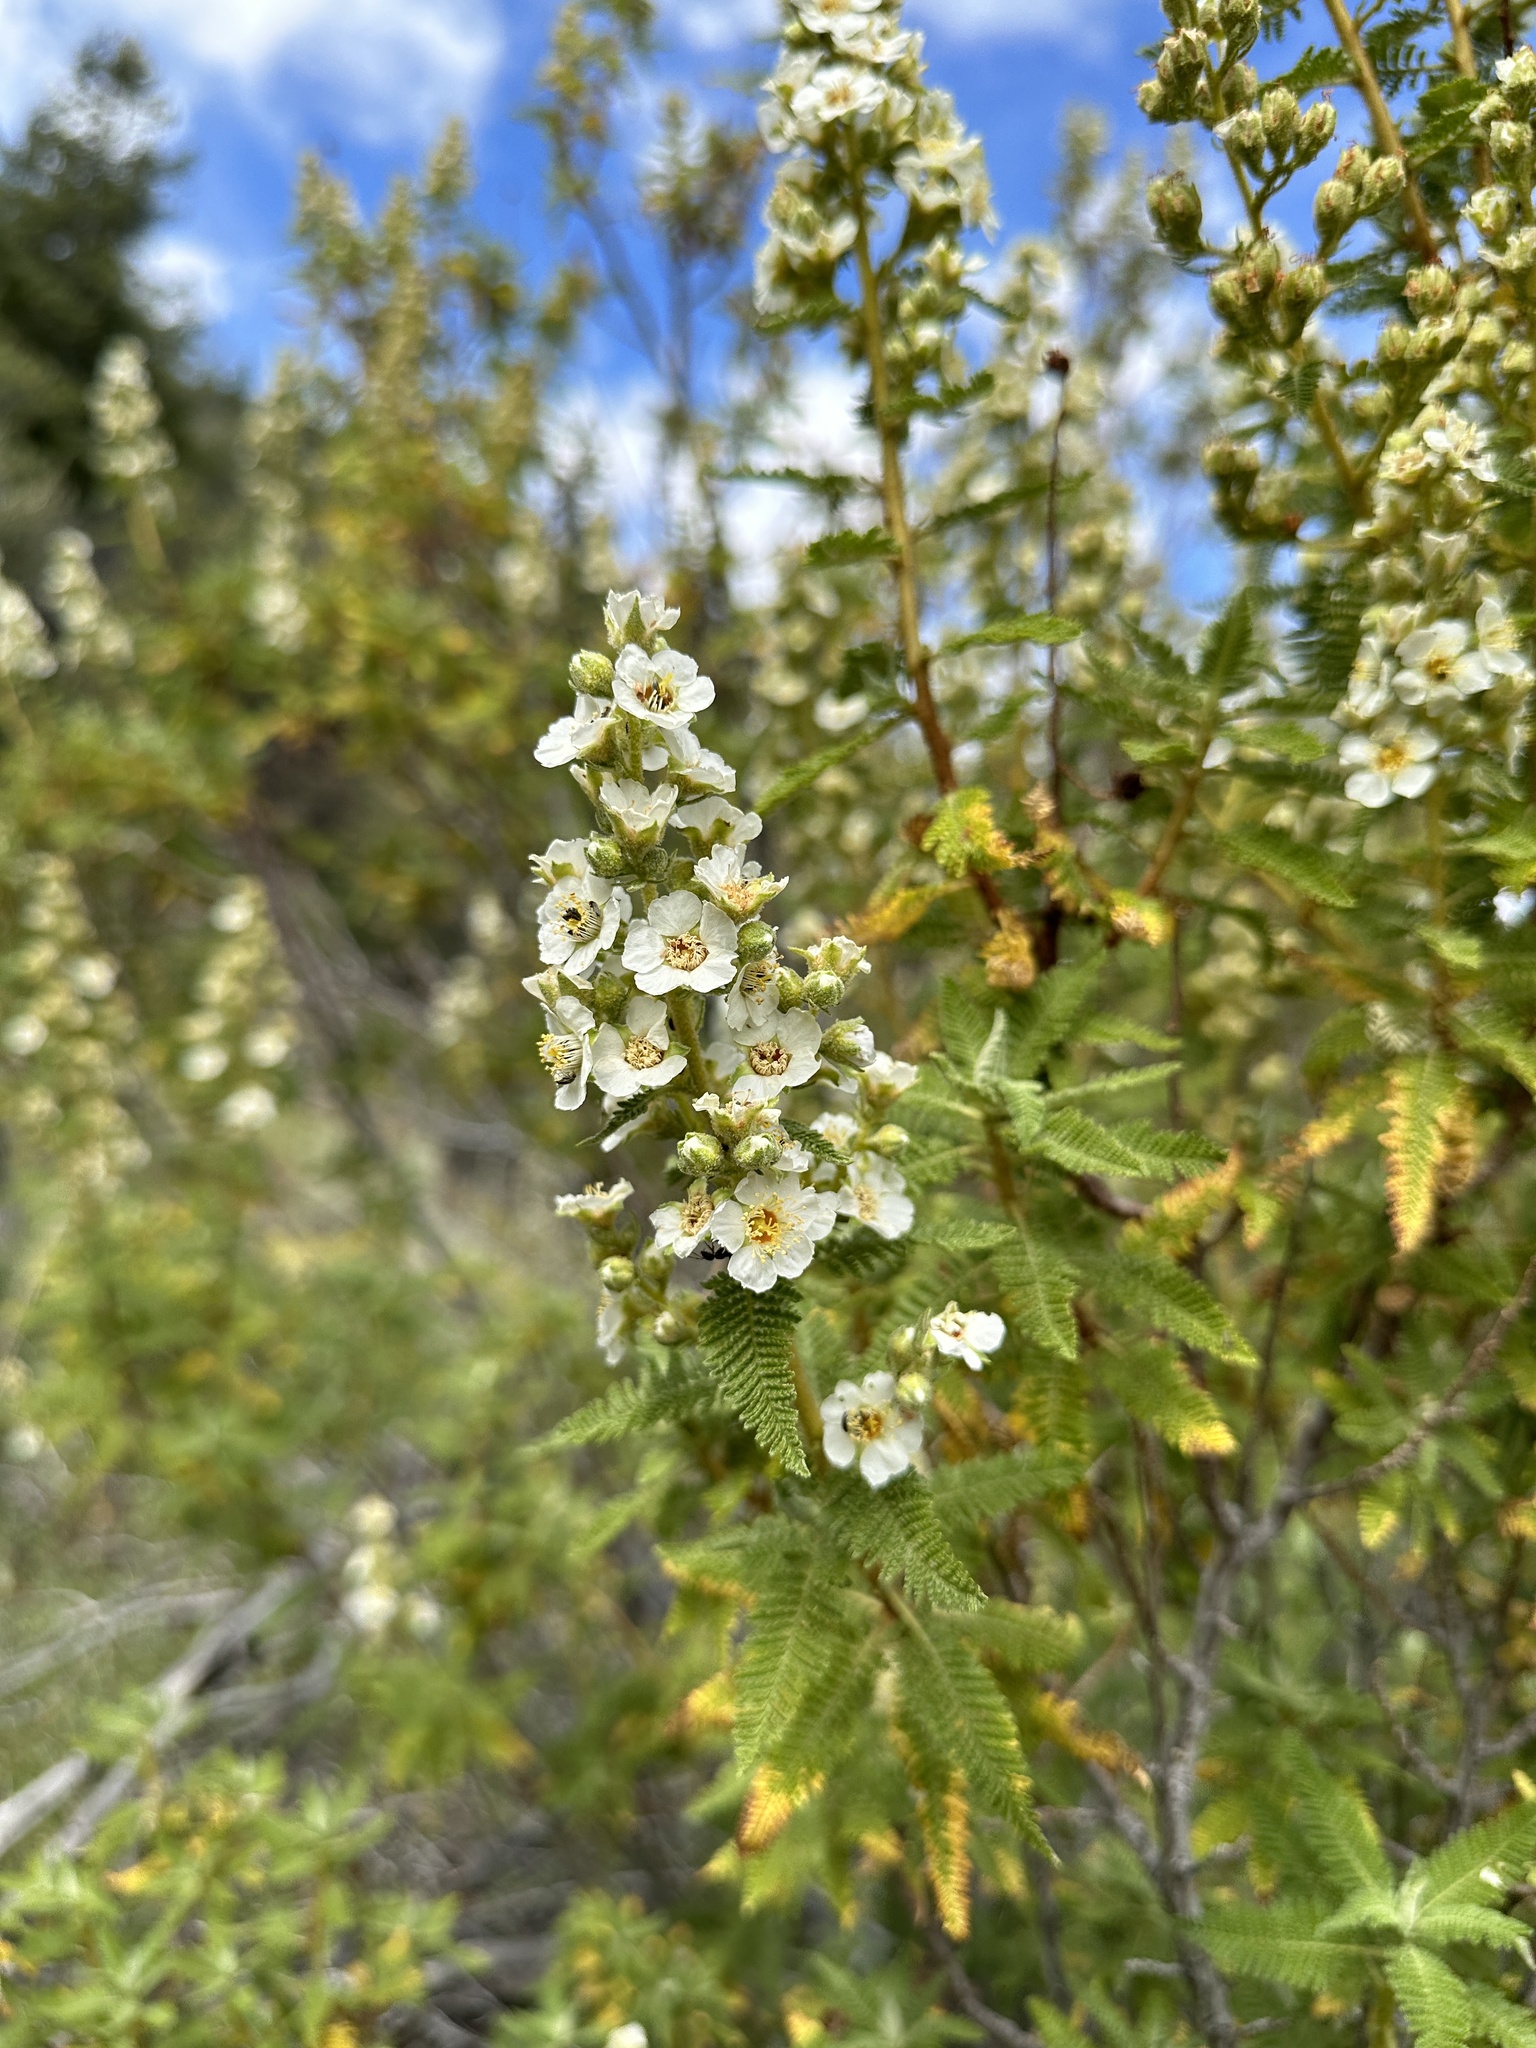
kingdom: Plantae
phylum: Tracheophyta
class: Magnoliopsida
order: Rosales
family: Rosaceae
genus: Chamaebatiaria
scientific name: Chamaebatiaria millefolium
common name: Fernbush
